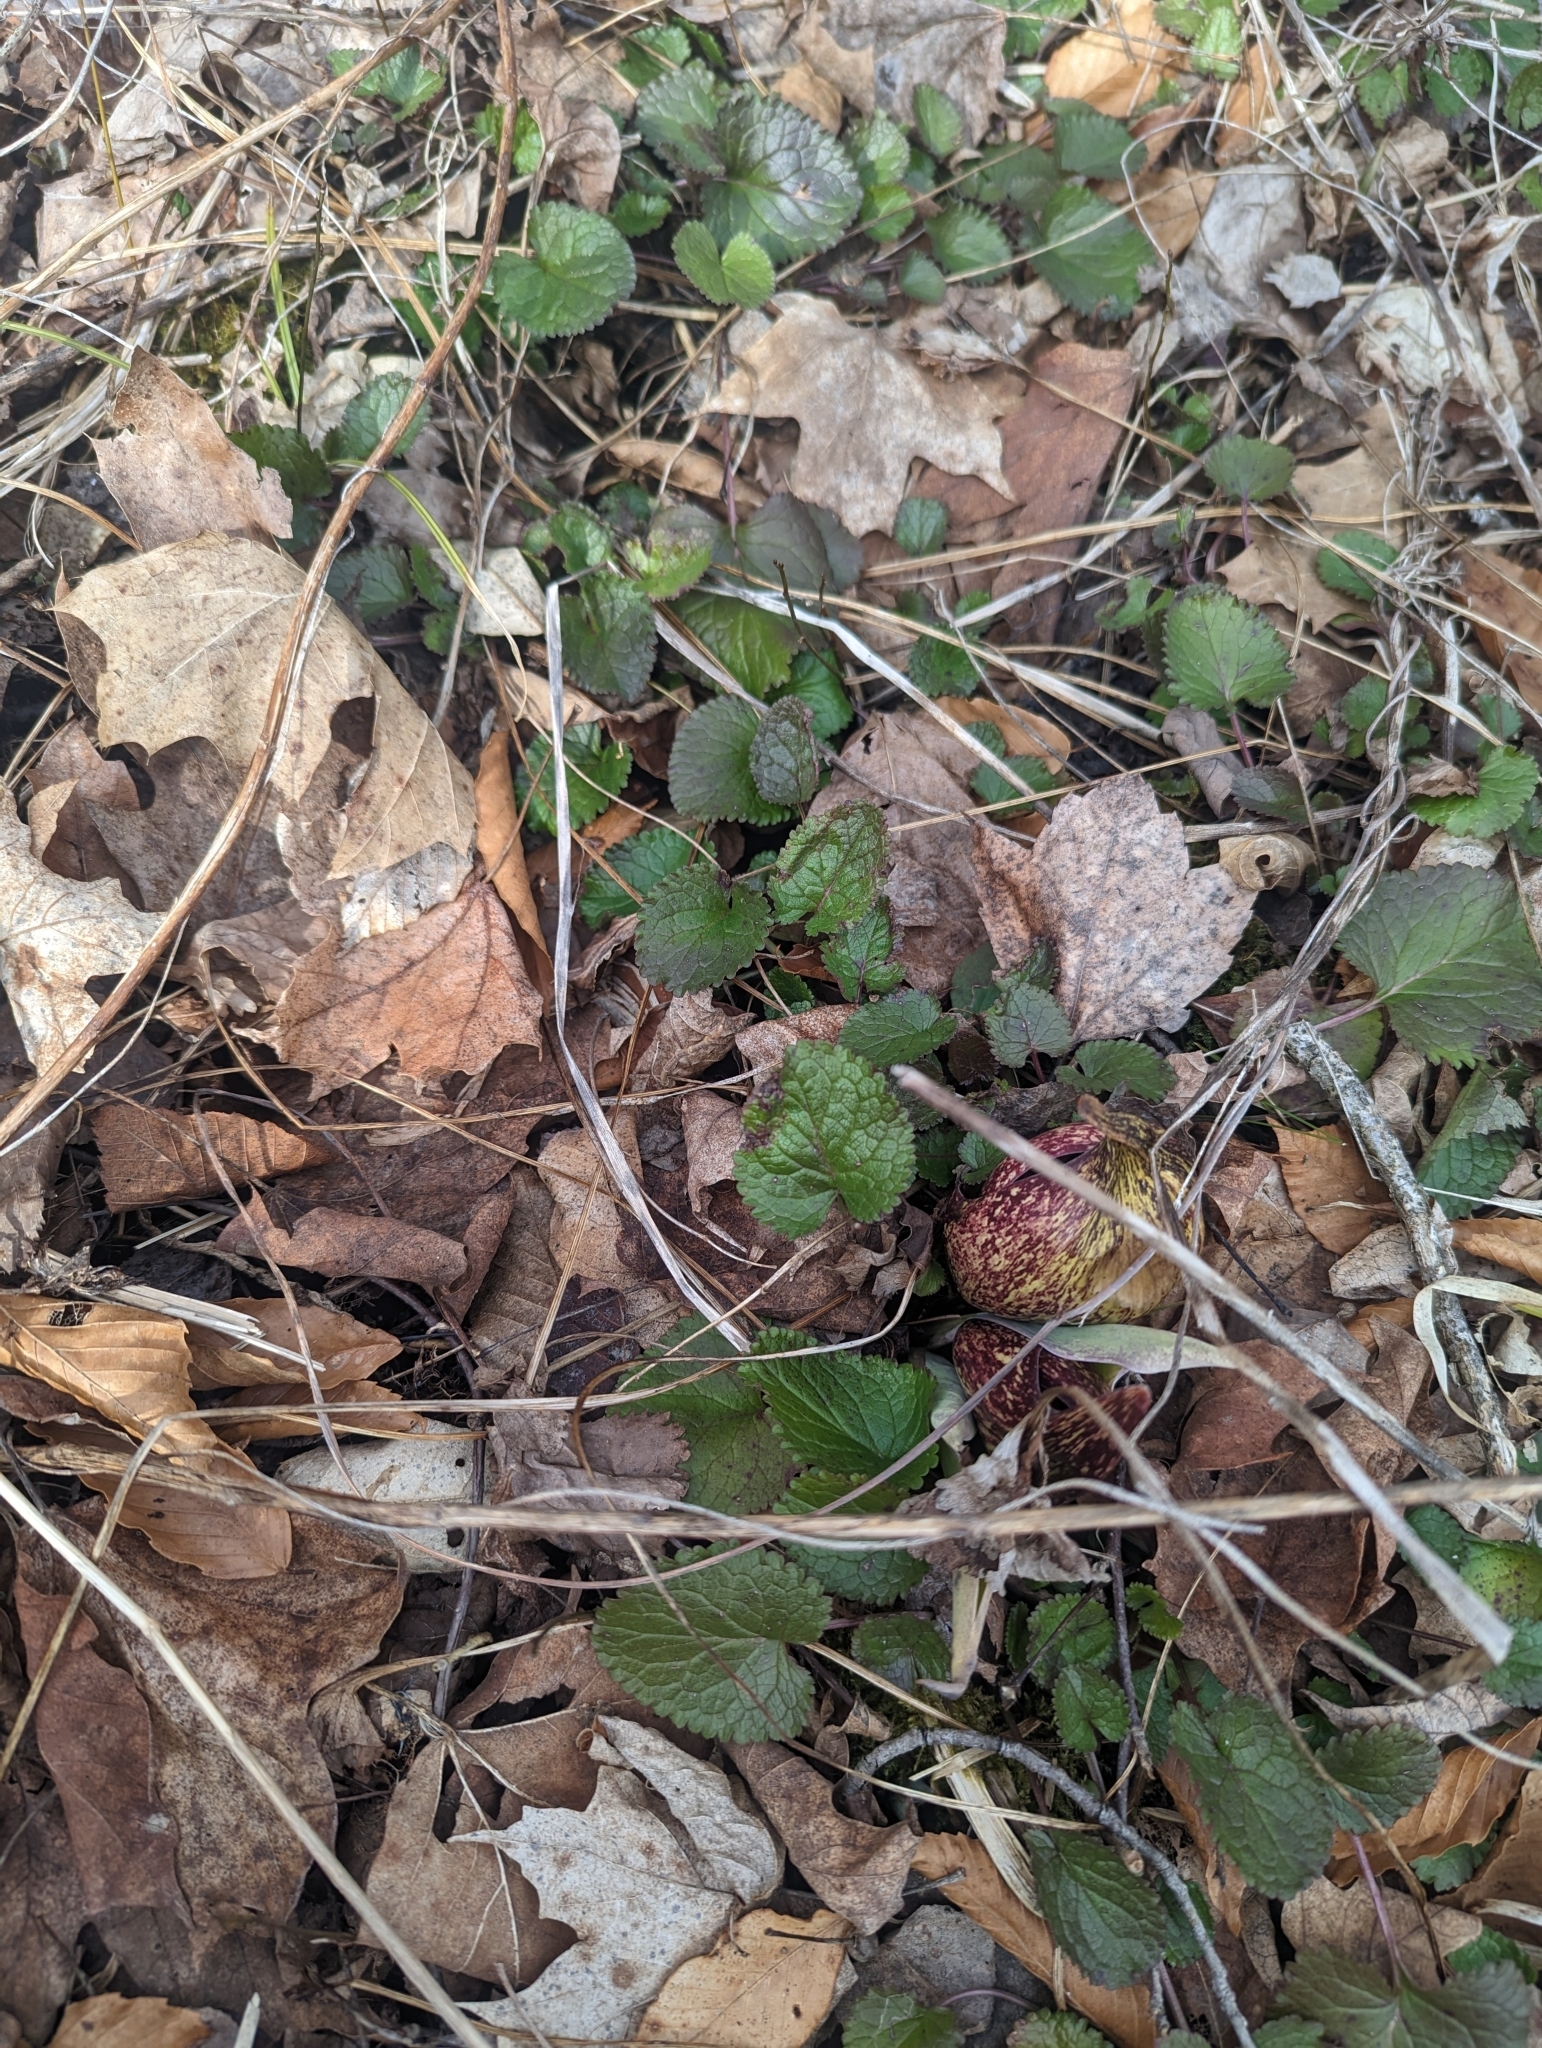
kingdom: Plantae
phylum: Tracheophyta
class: Magnoliopsida
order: Asterales
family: Asteraceae
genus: Packera
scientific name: Packera aurea
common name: Golden groundsel
